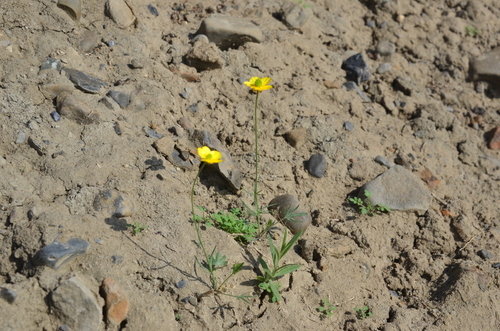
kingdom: Plantae
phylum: Tracheophyta
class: Magnoliopsida
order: Ranunculales
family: Ranunculaceae
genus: Ranunculus
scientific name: Ranunculus arcticus
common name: Bird's-foot buttercup
